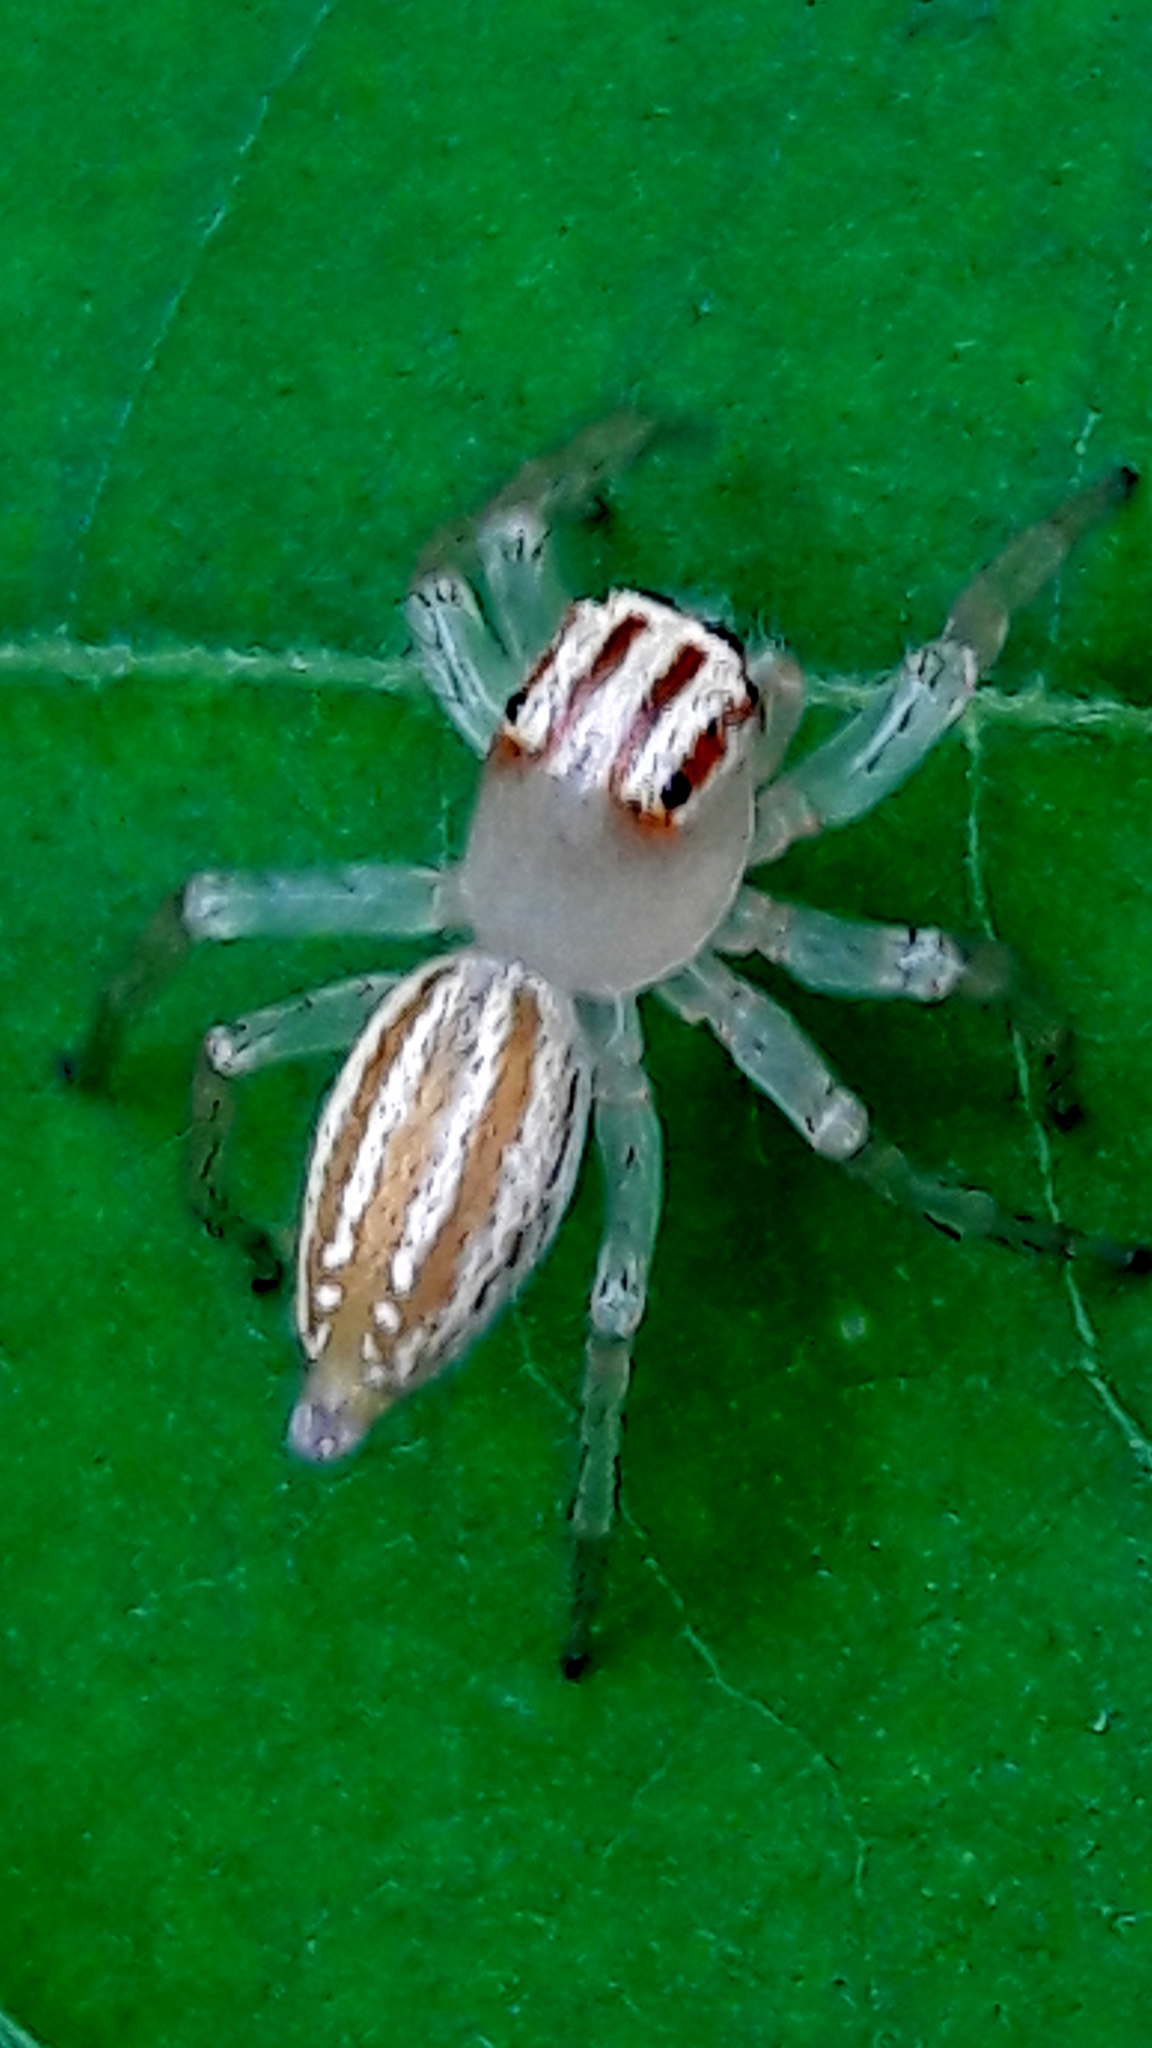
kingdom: Animalia
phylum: Arthropoda
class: Arachnida
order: Araneae
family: Salticidae
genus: Chira
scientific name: Chira spinosa
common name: Jumping spiders
